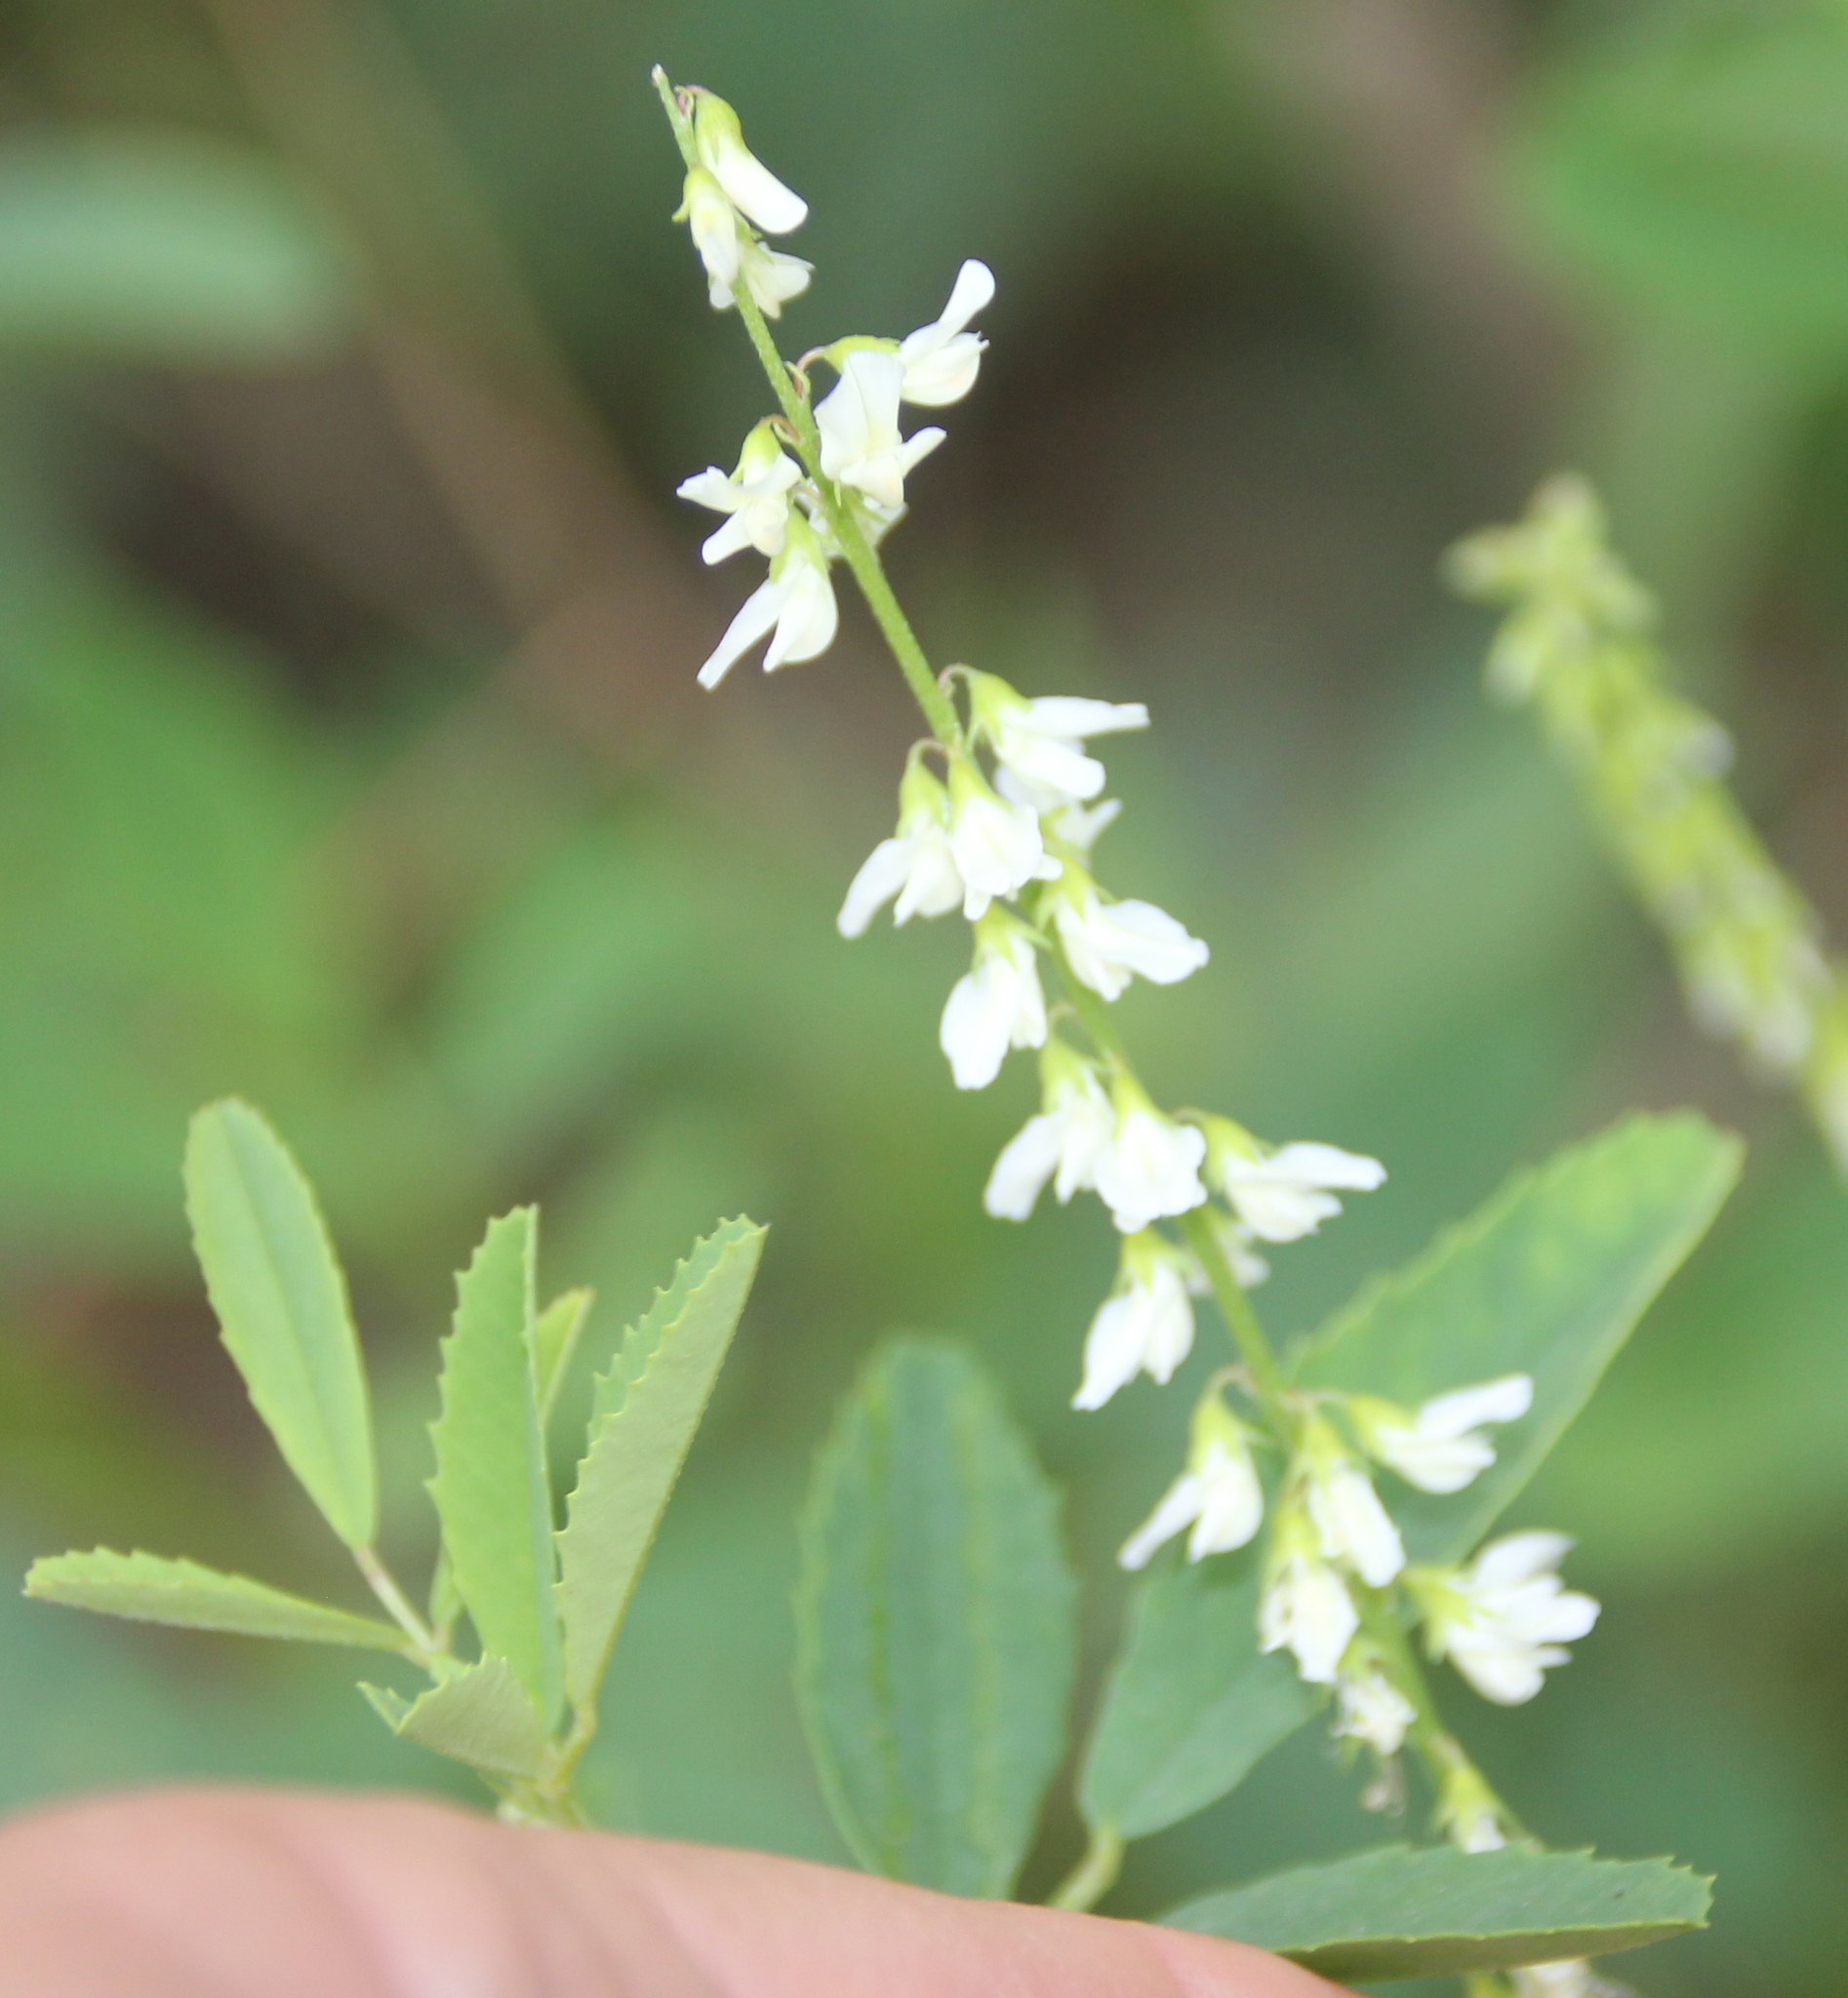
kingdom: Plantae
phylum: Tracheophyta
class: Magnoliopsida
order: Fabales
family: Fabaceae
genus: Melilotus
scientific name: Melilotus albus
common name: White melilot
